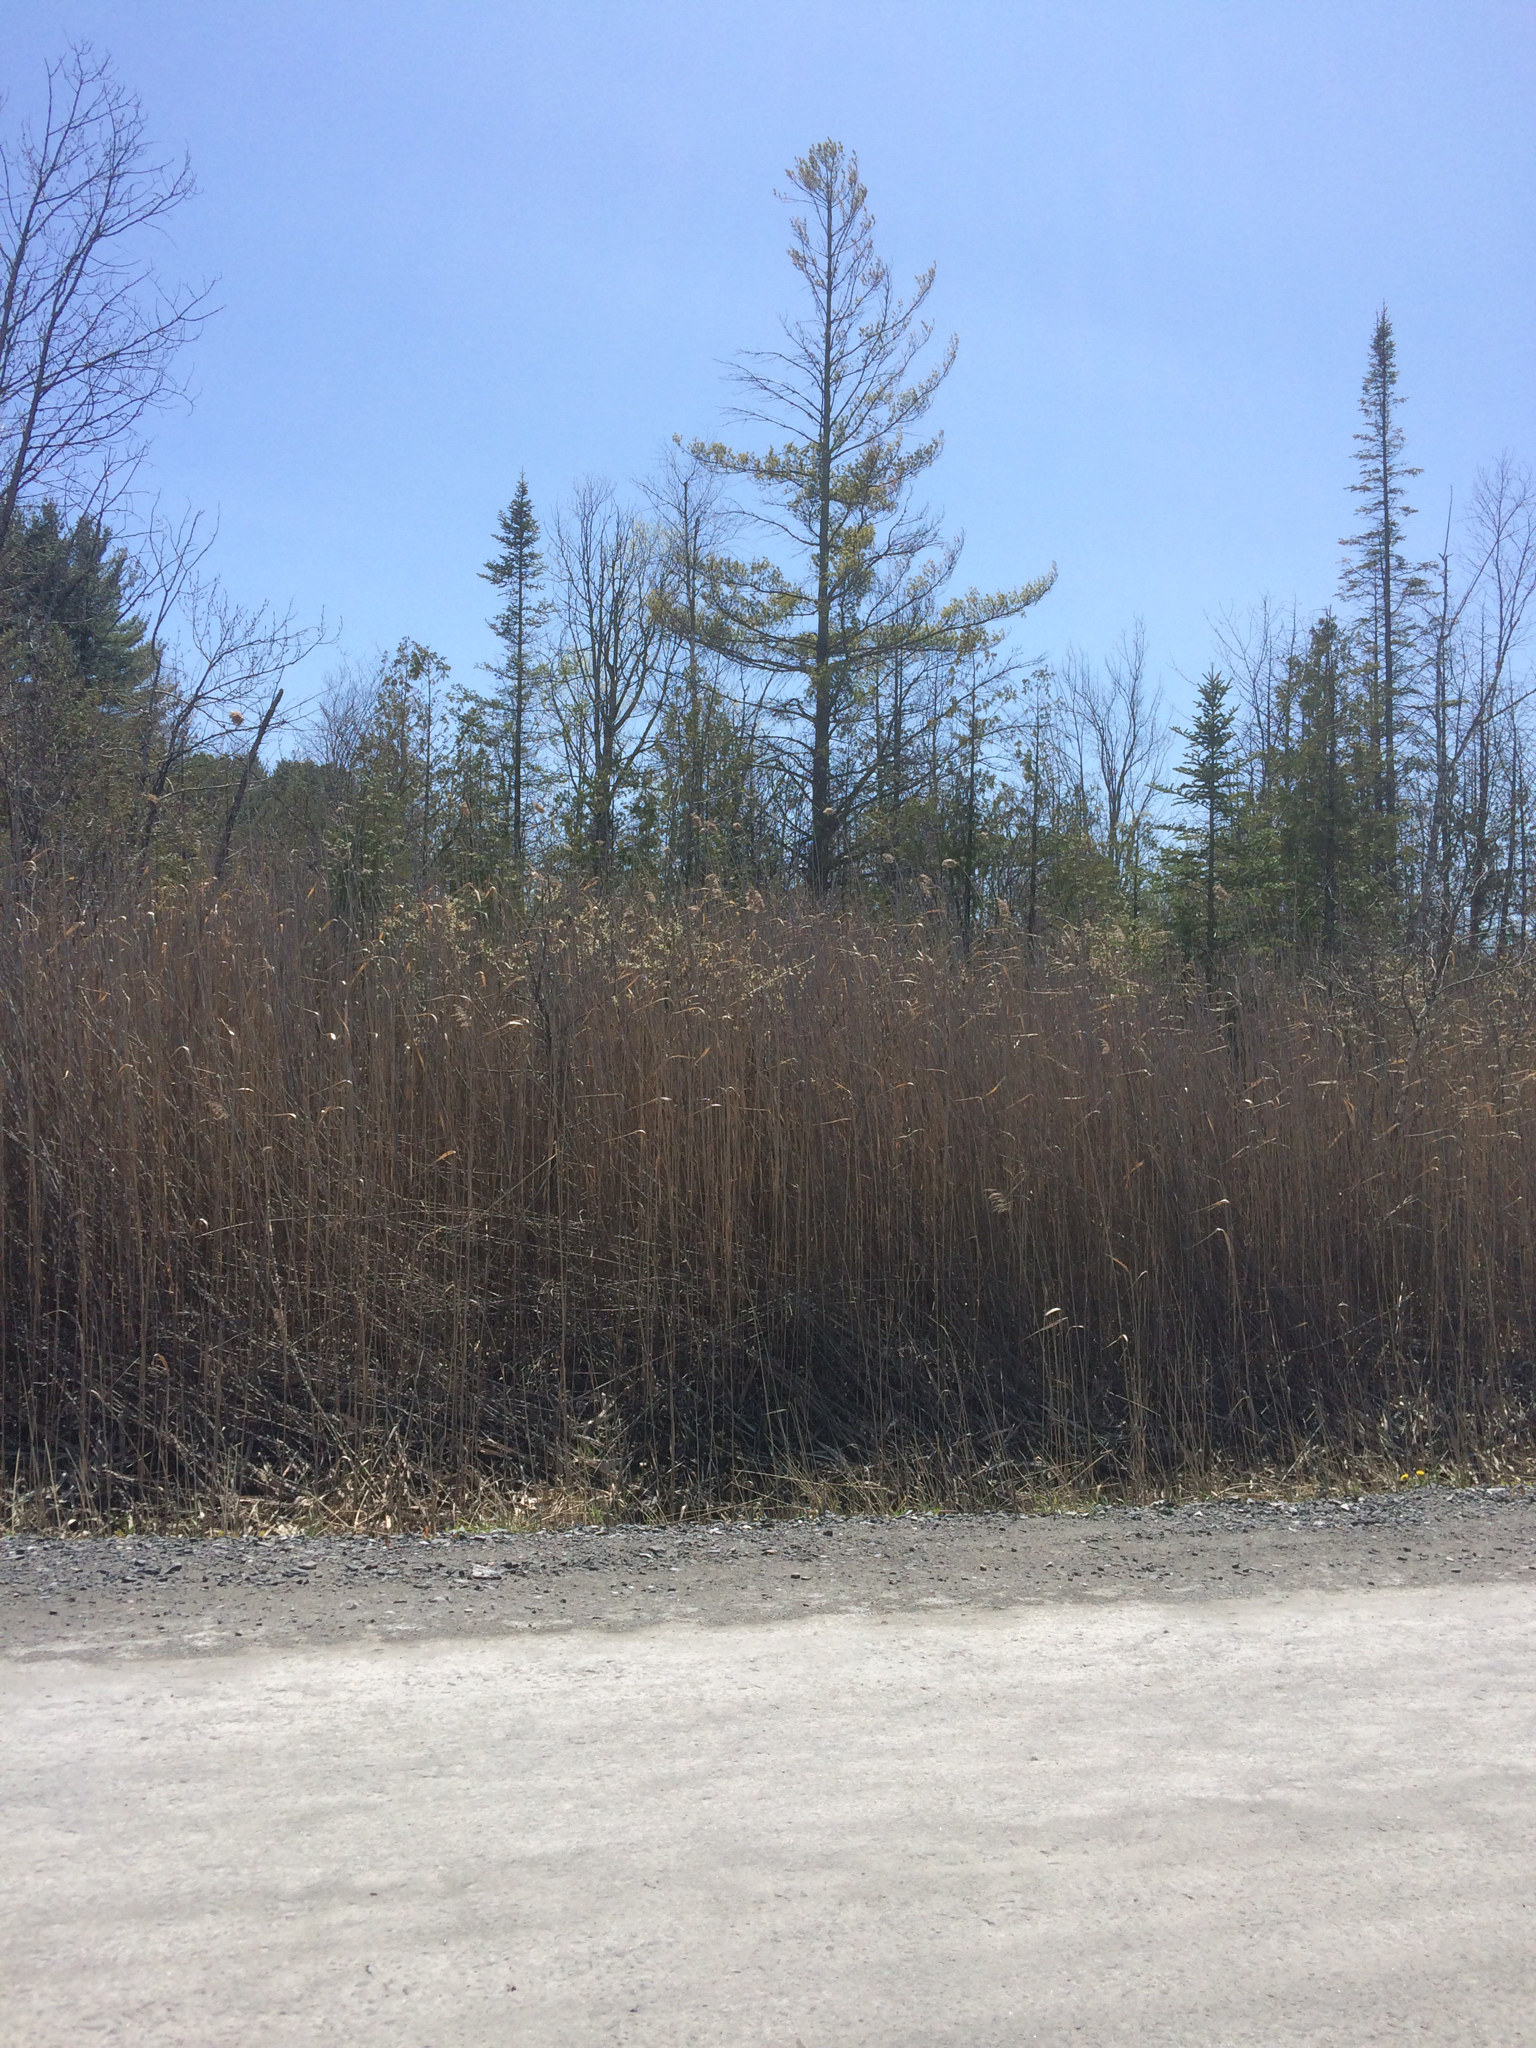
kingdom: Plantae
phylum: Tracheophyta
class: Liliopsida
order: Poales
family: Poaceae
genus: Phragmites
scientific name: Phragmites australis
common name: Common reed
